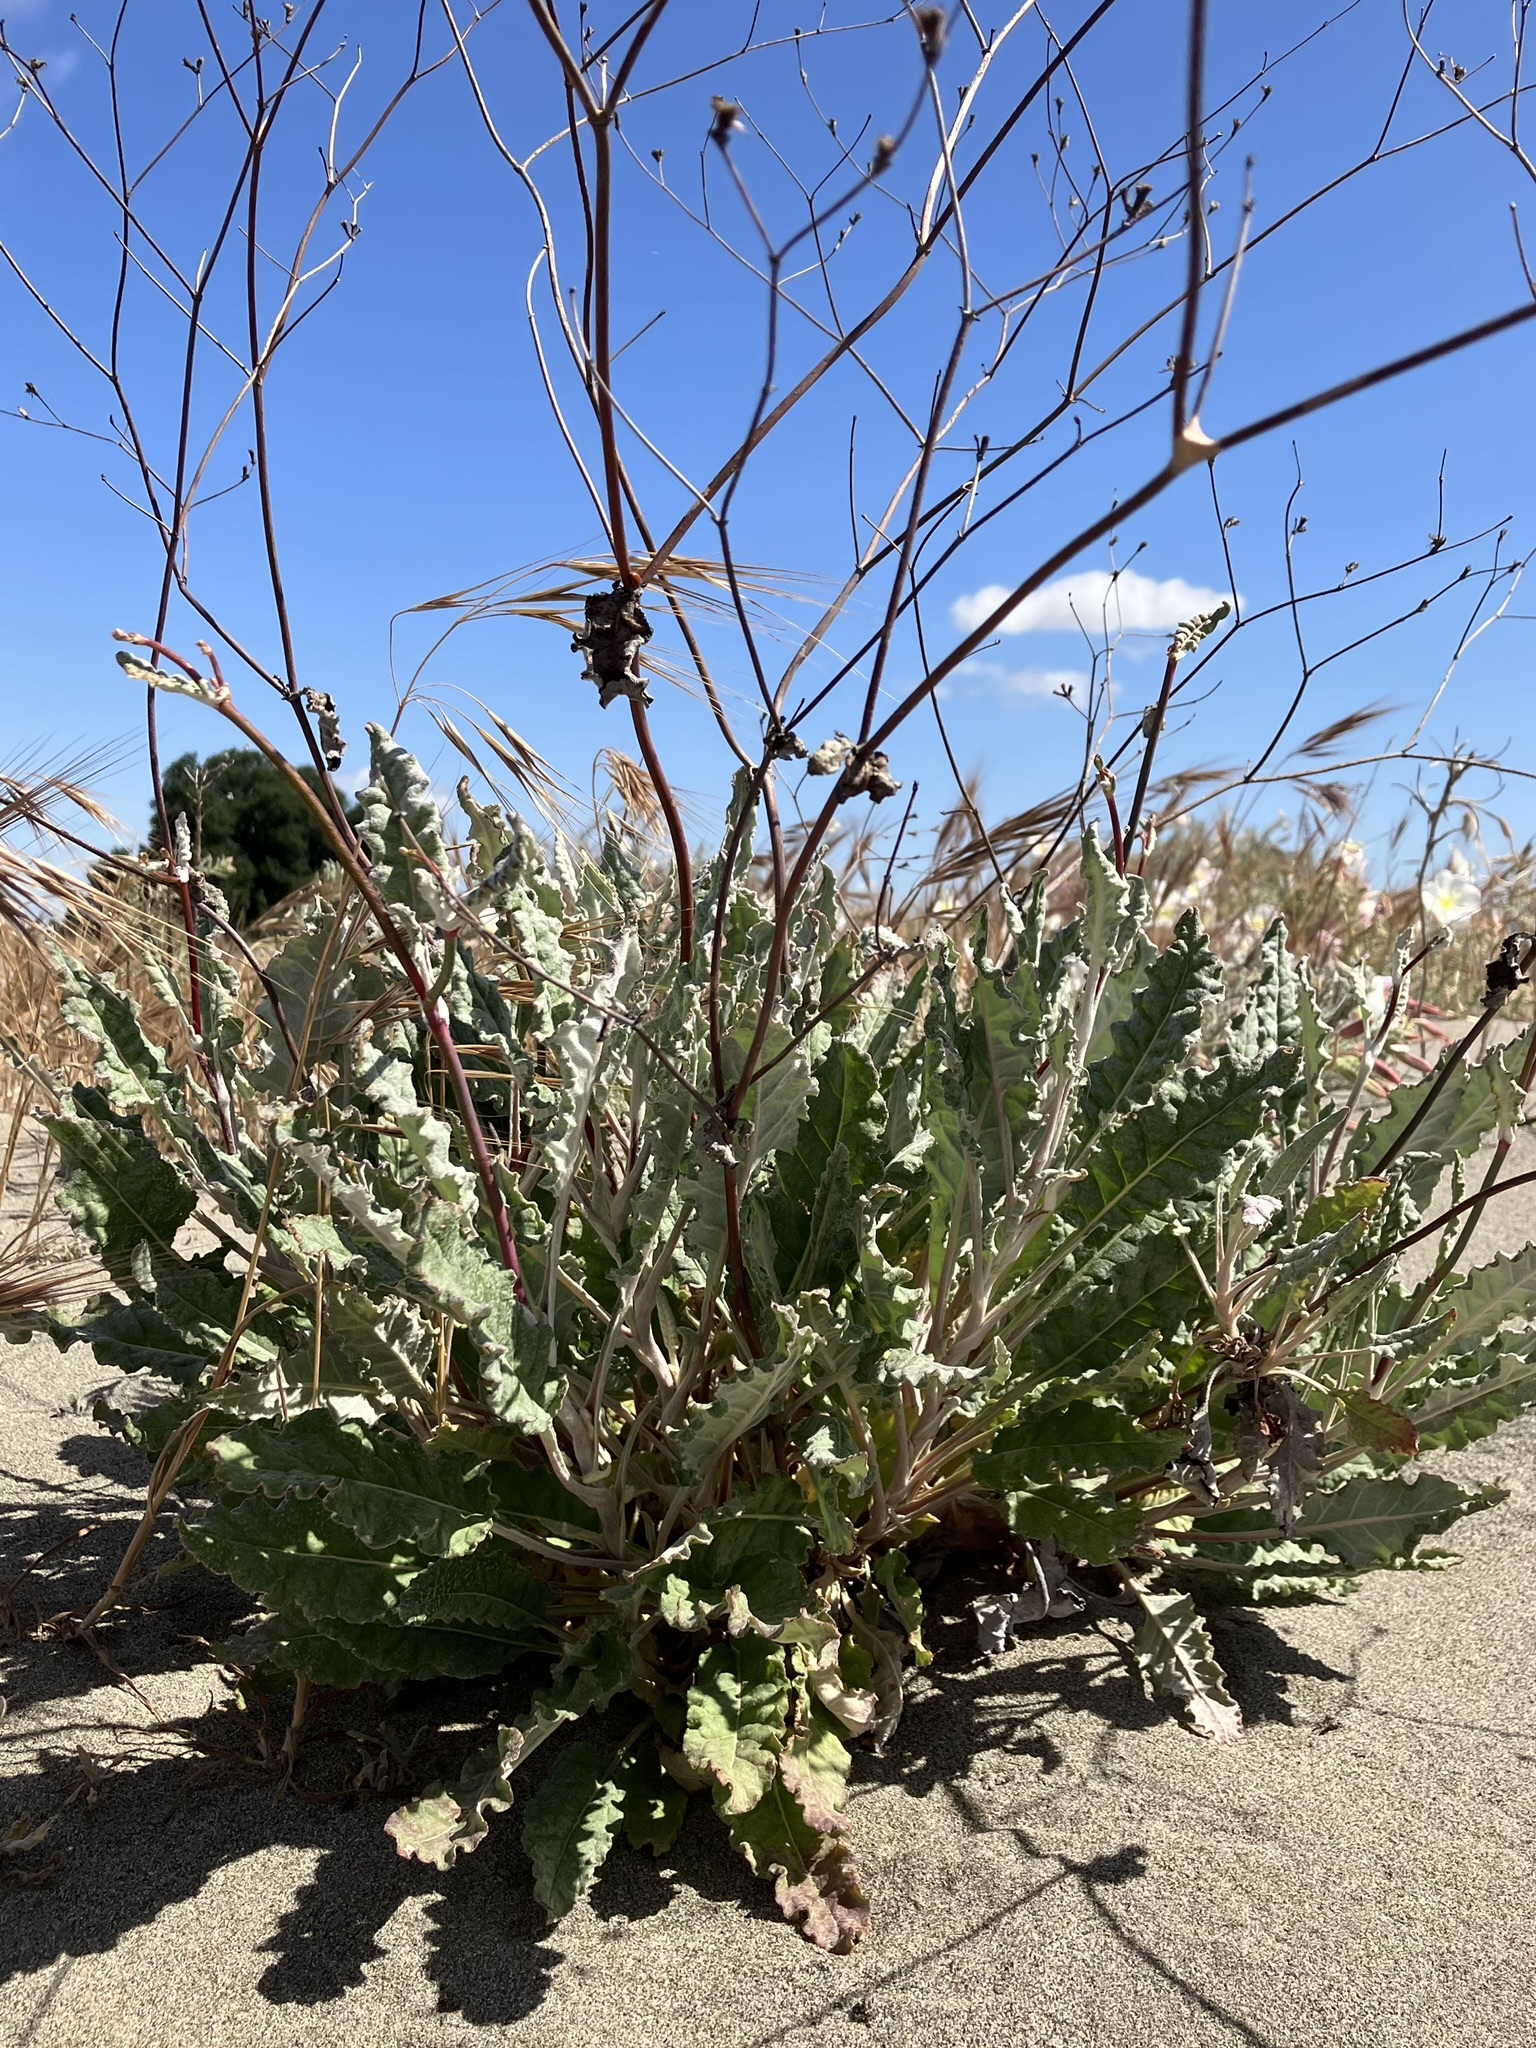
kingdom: Plantae
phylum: Tracheophyta
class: Magnoliopsida
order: Caryophyllales
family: Polygonaceae
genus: Eriogonum
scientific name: Eriogonum nudum
